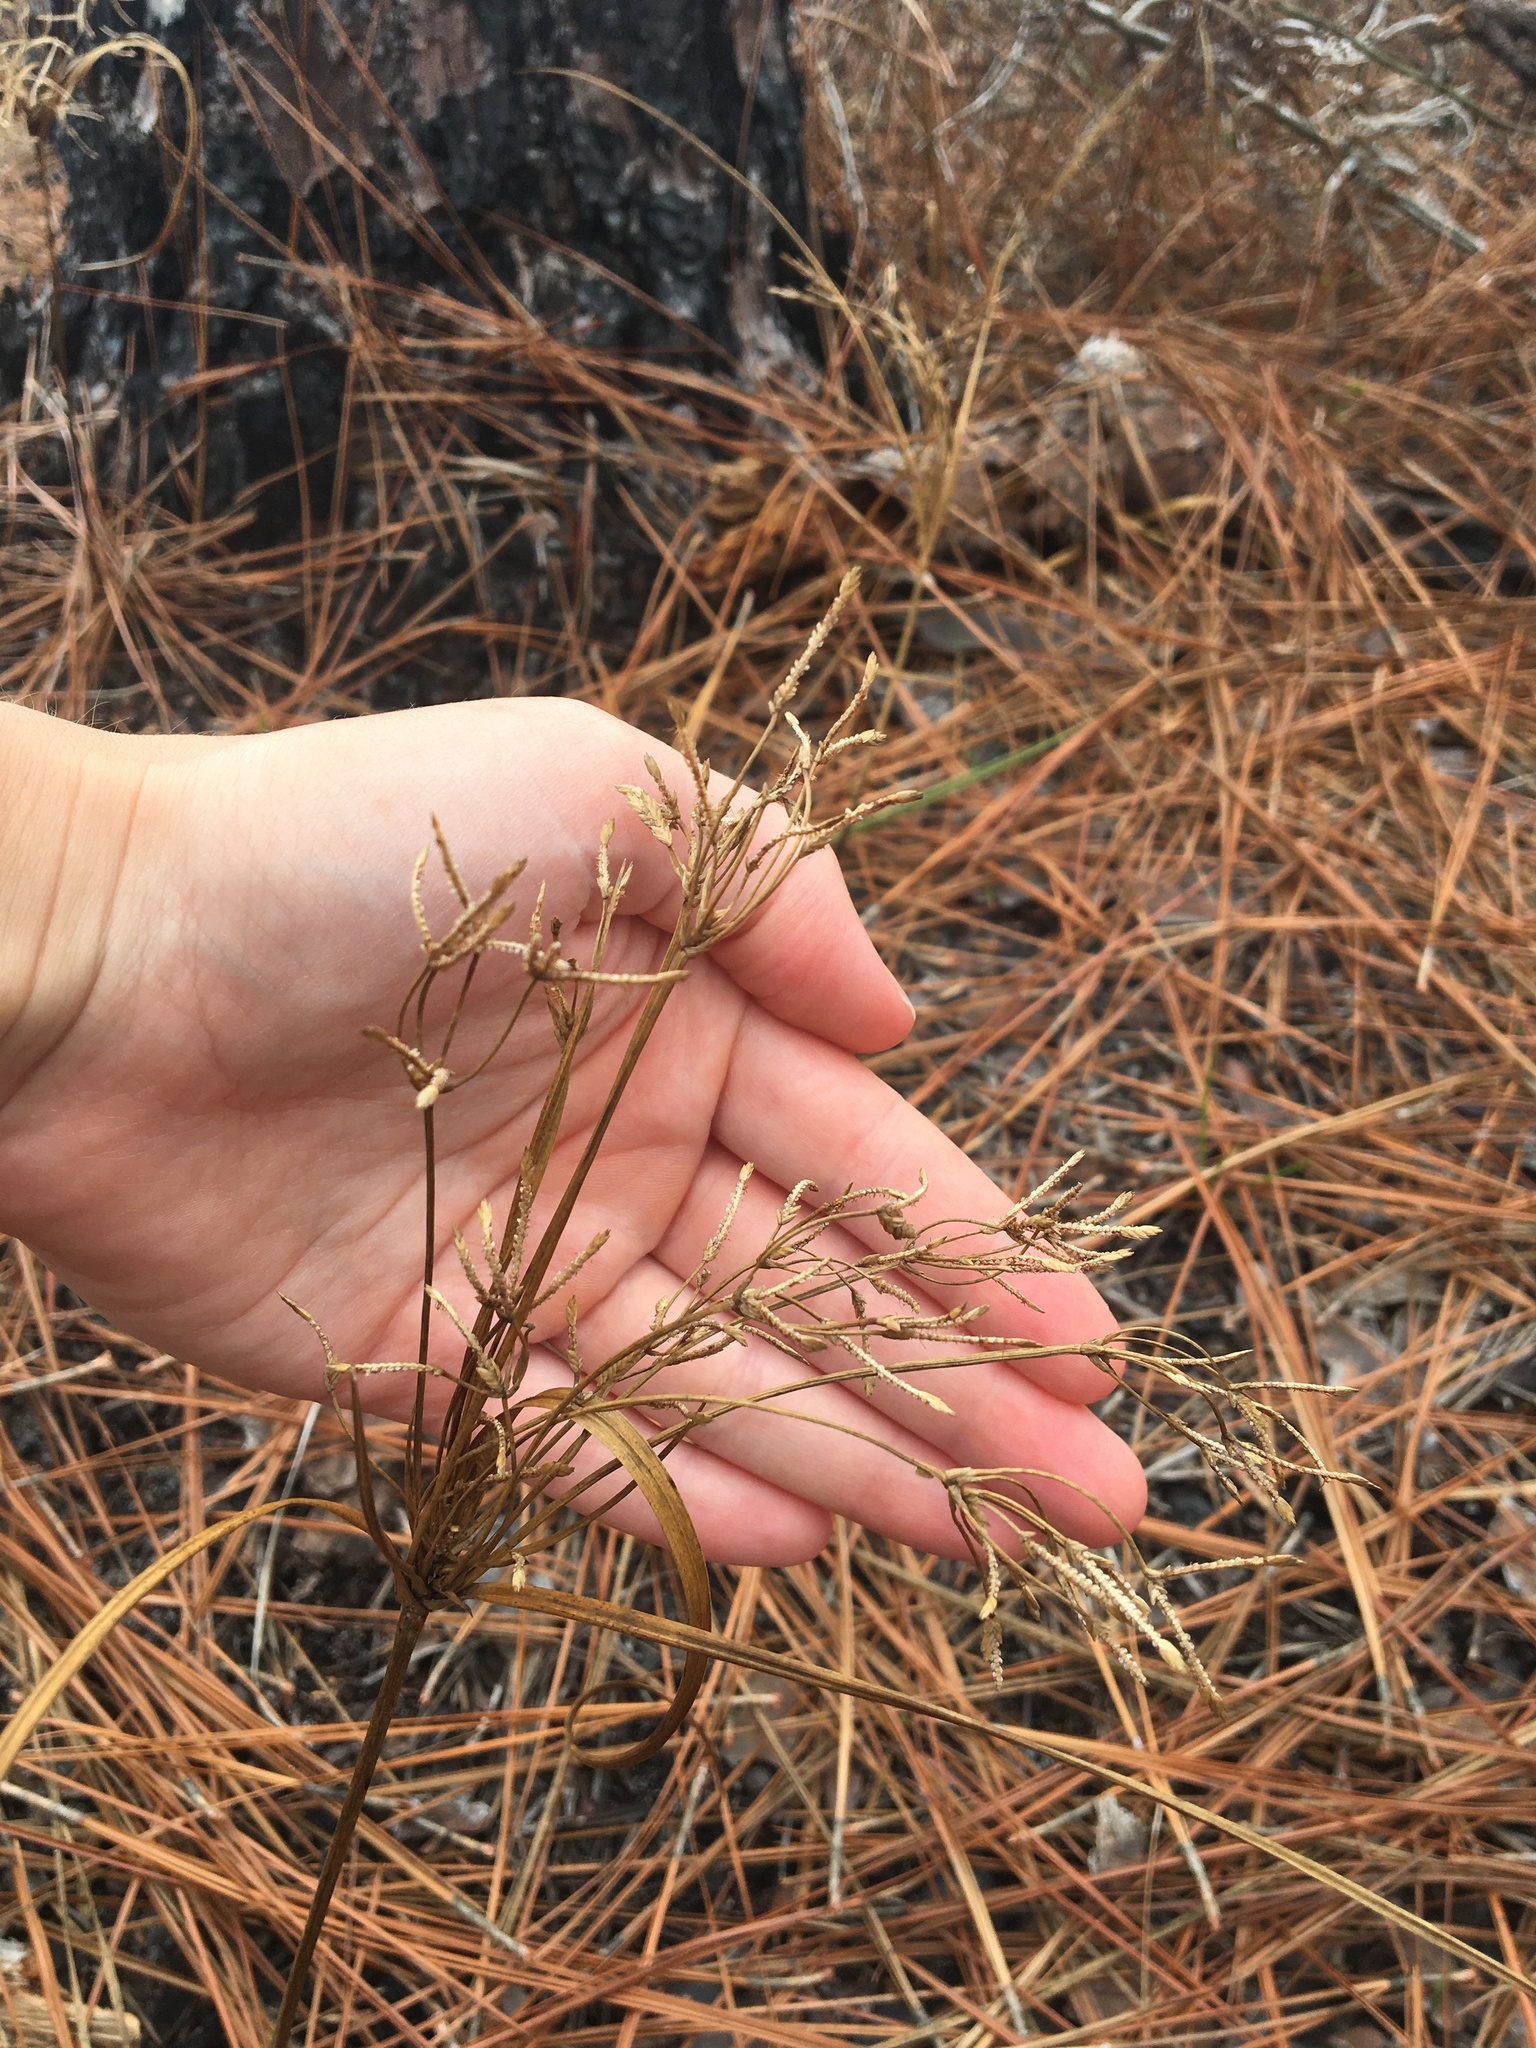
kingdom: Plantae
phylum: Tracheophyta
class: Liliopsida
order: Poales
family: Cyperaceae
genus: Cyperus
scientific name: Cyperus lecontei
